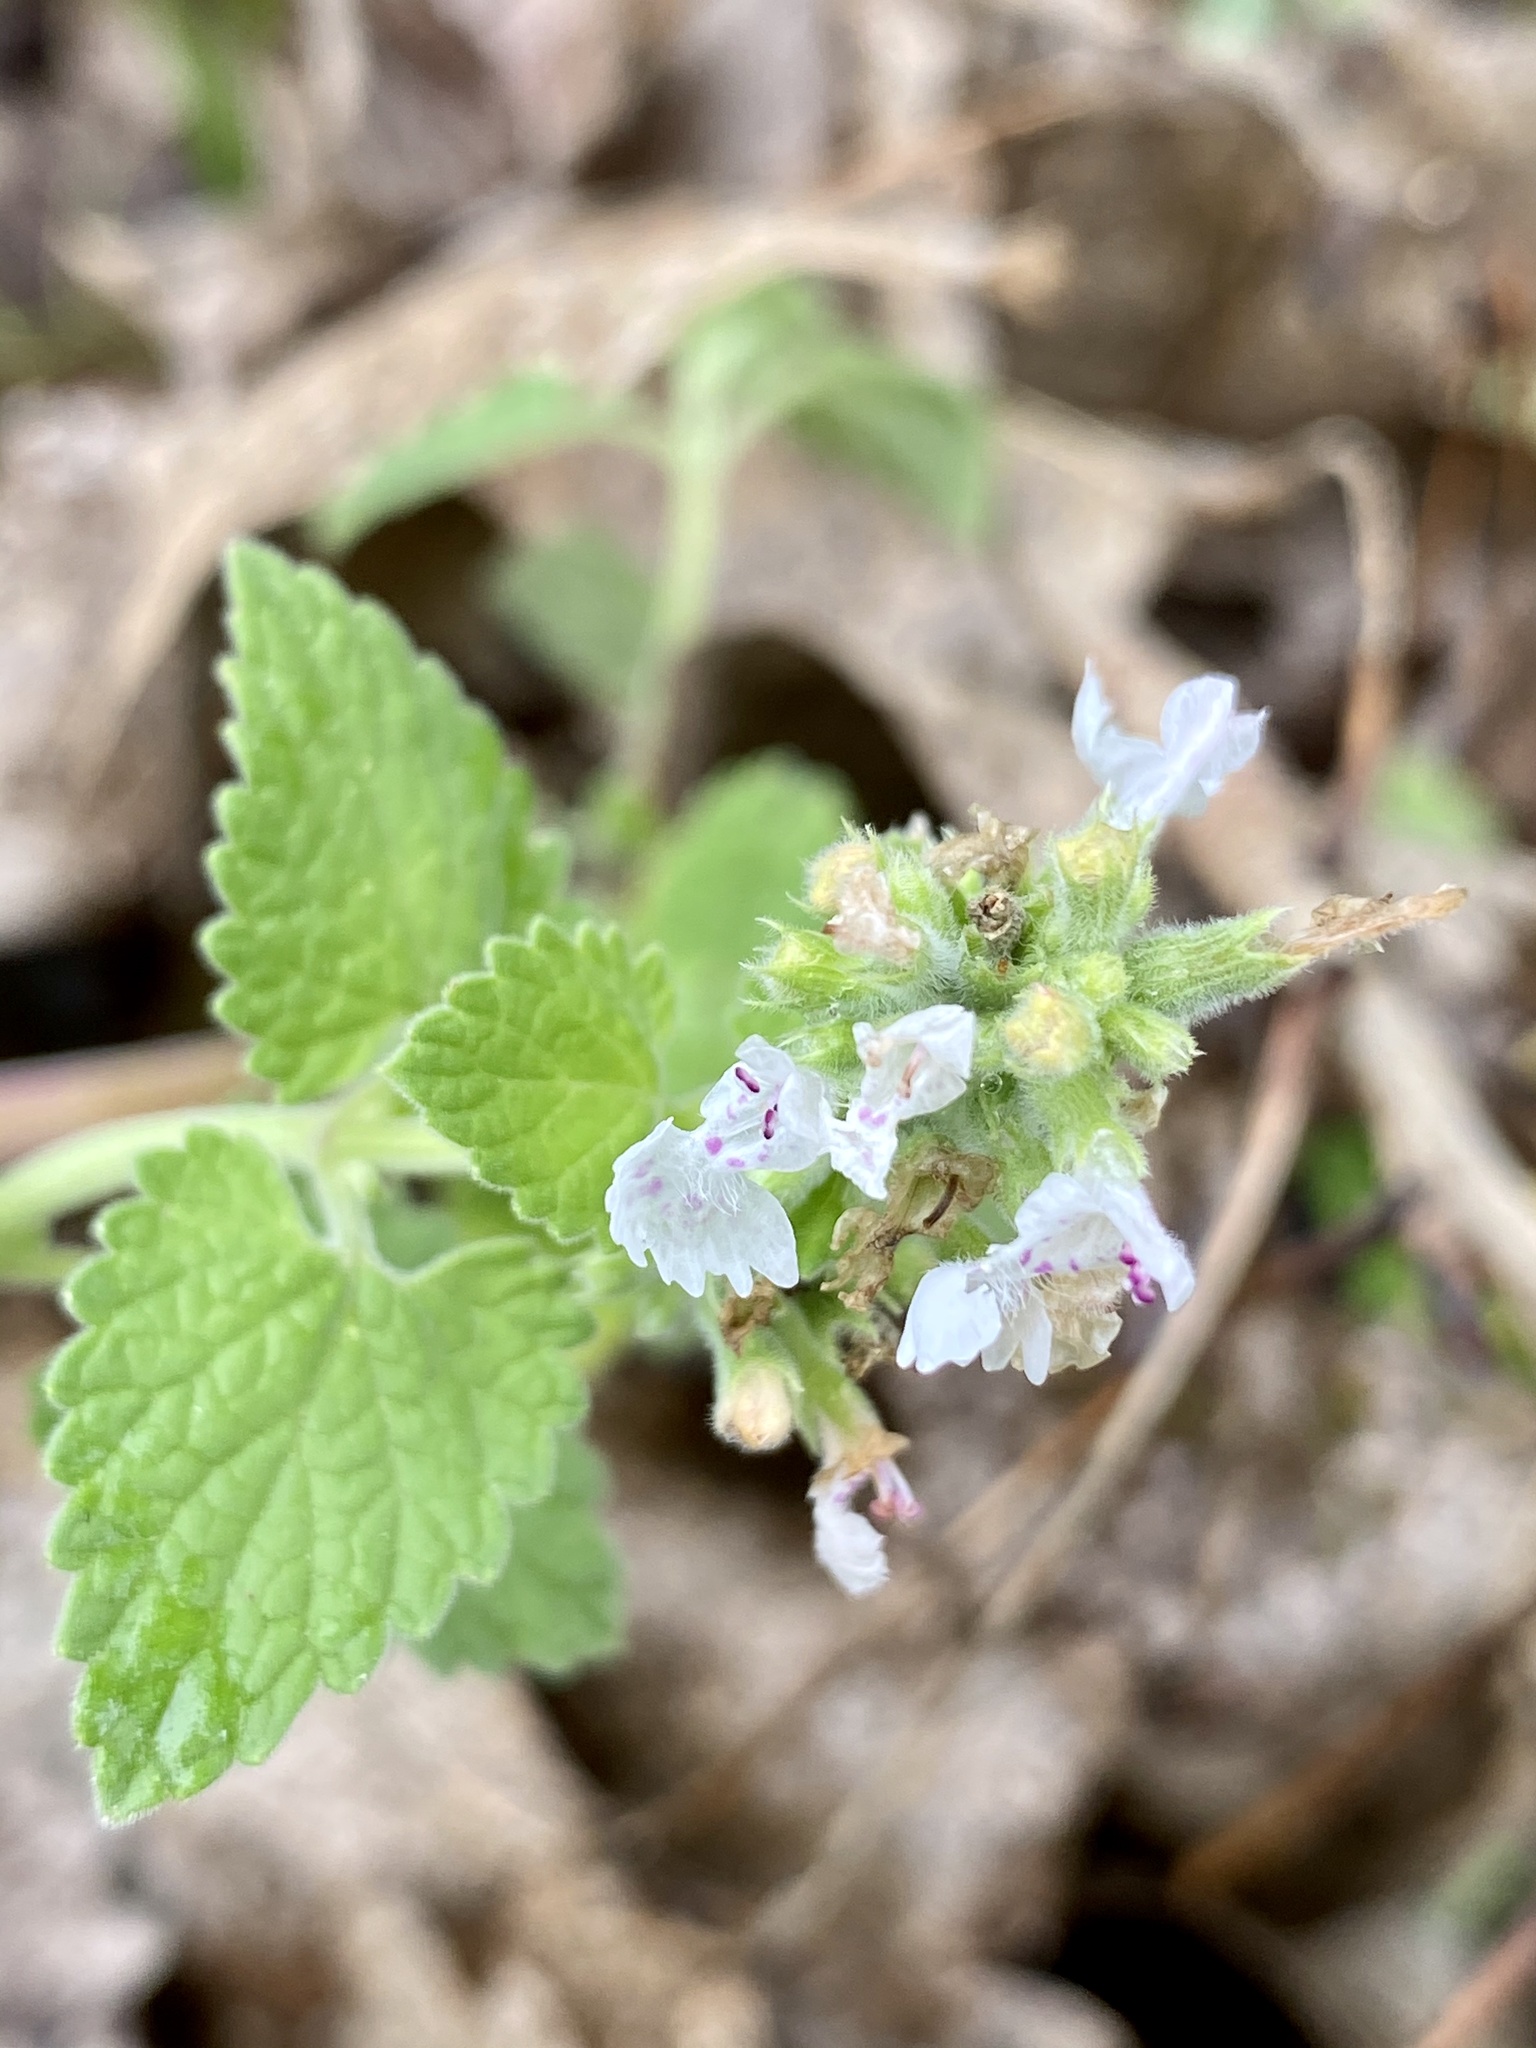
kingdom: Plantae
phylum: Tracheophyta
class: Magnoliopsida
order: Lamiales
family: Lamiaceae
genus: Nepeta
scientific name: Nepeta cataria
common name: Catnip
